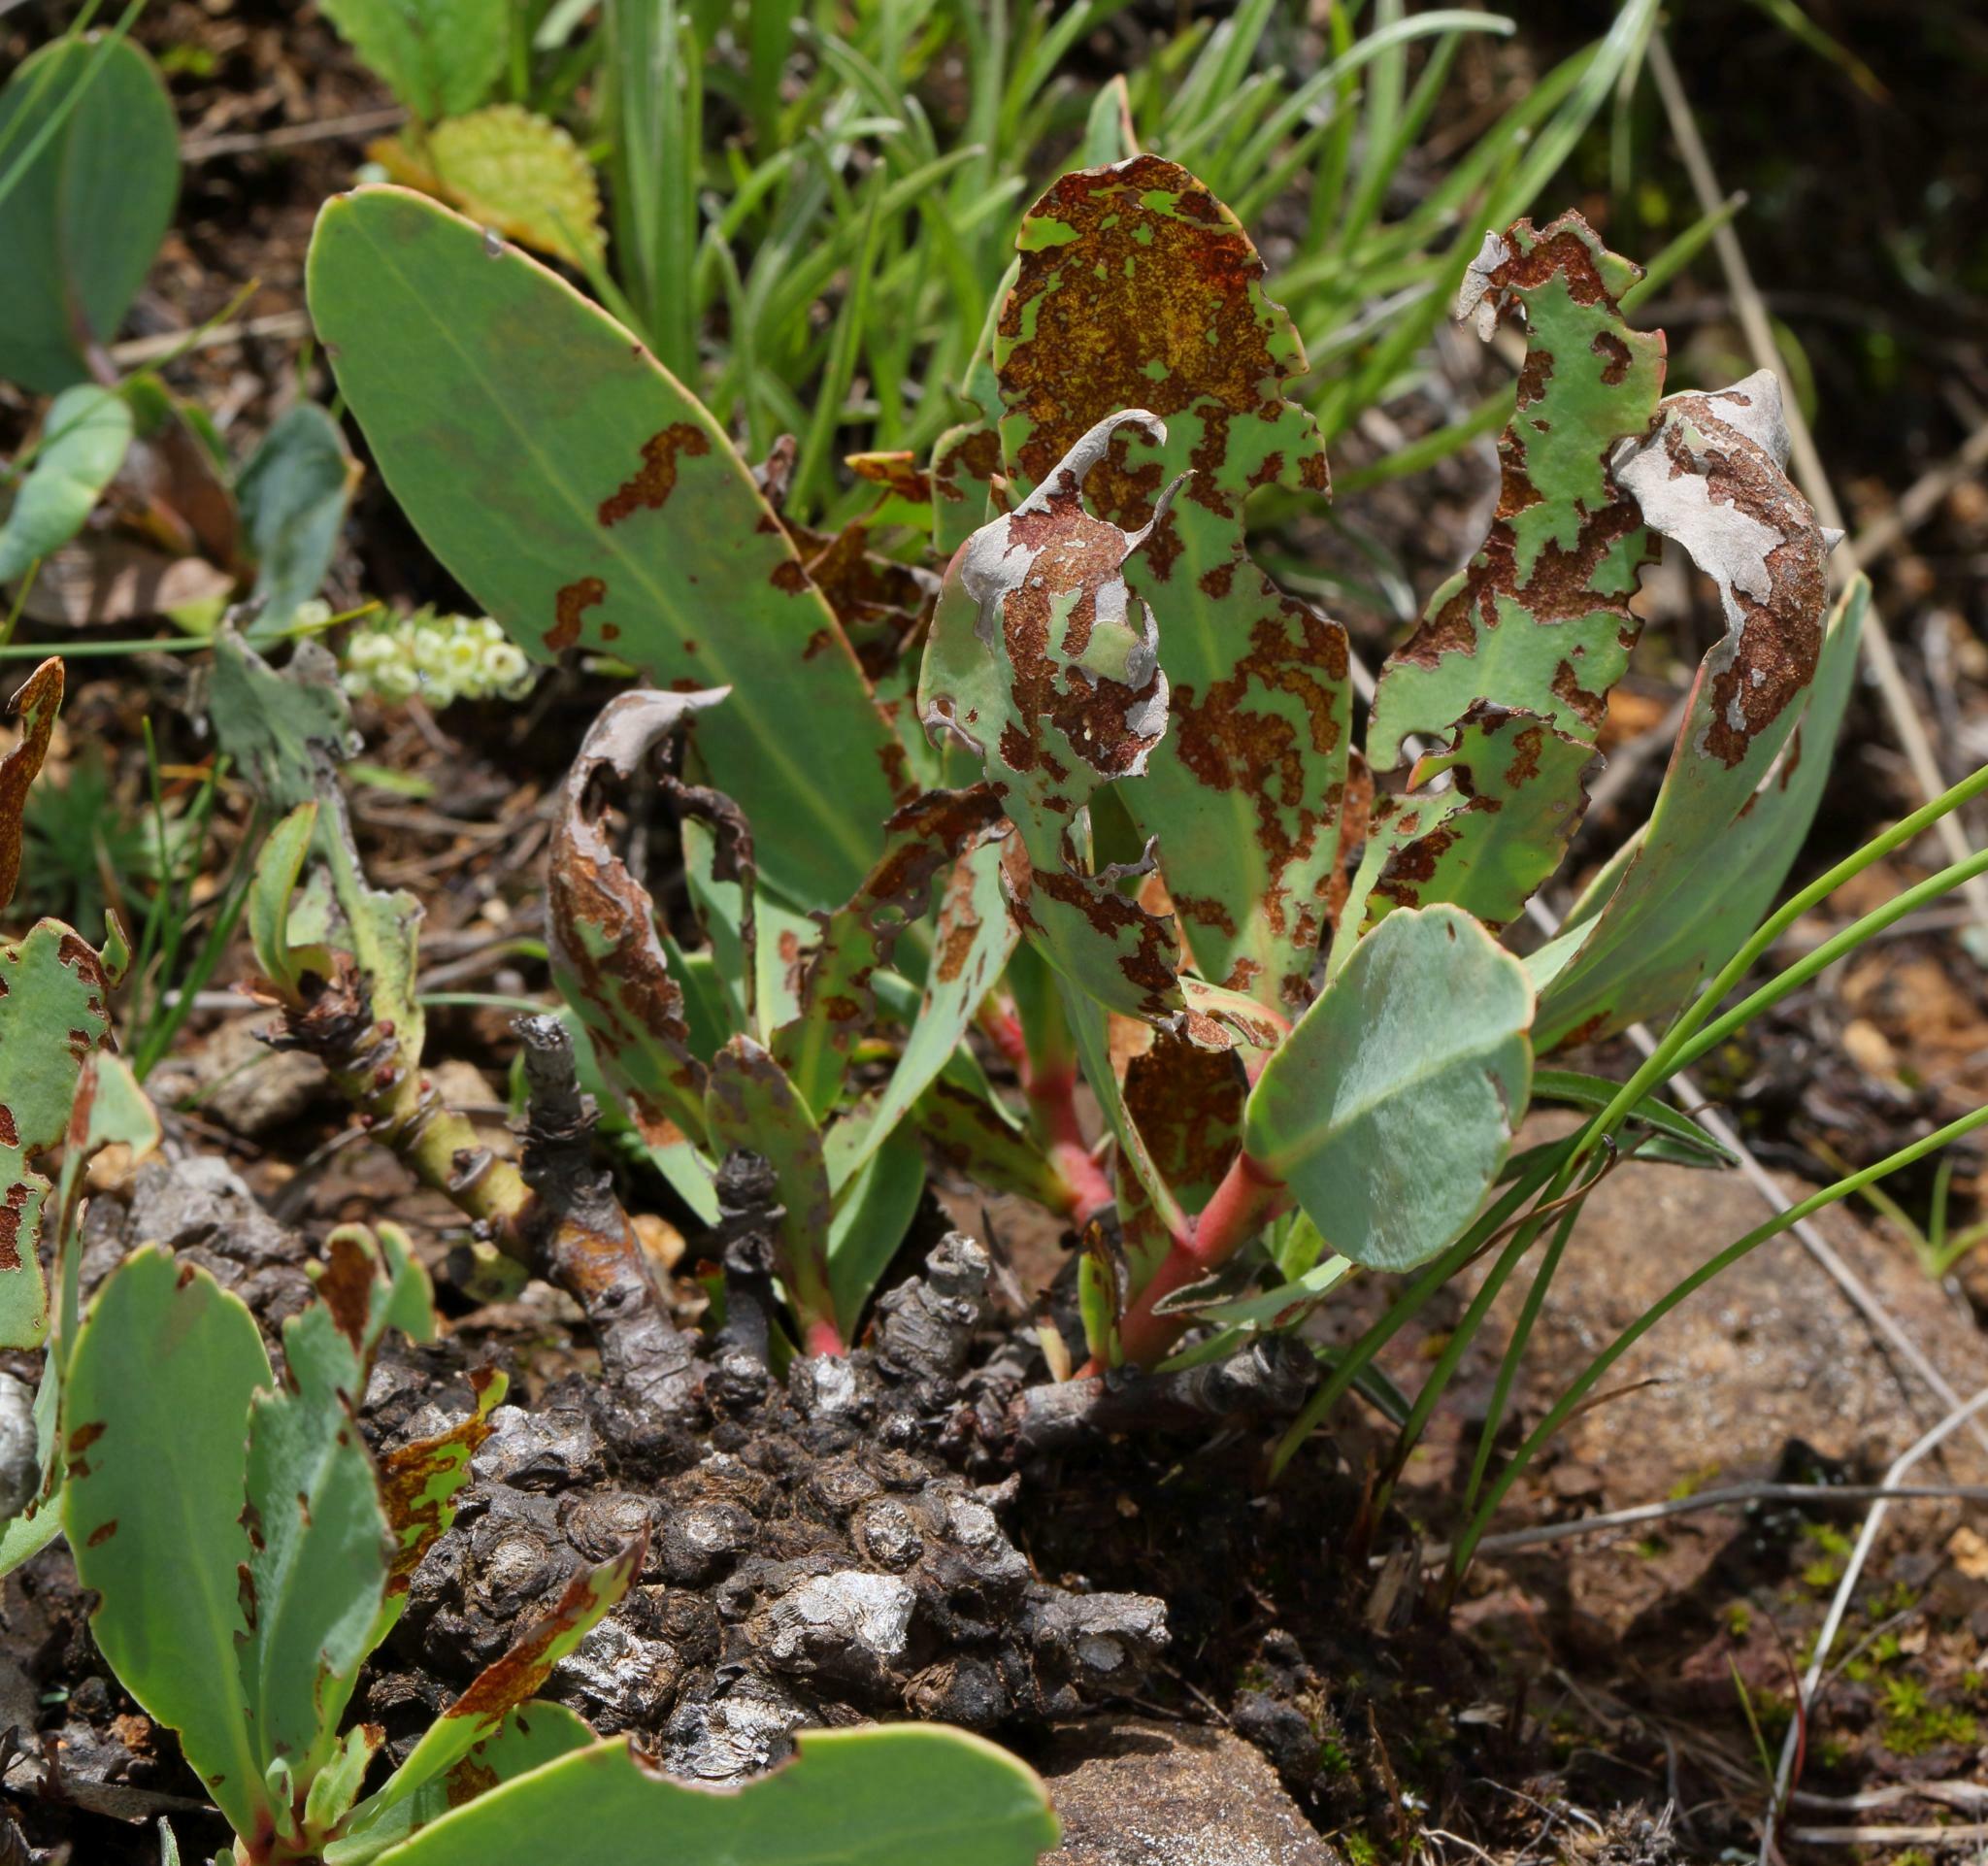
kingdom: Plantae
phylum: Tracheophyta
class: Magnoliopsida
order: Proteales
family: Proteaceae
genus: Protea
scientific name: Protea dracomontana
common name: Drakensberg dwarf sugarbush
